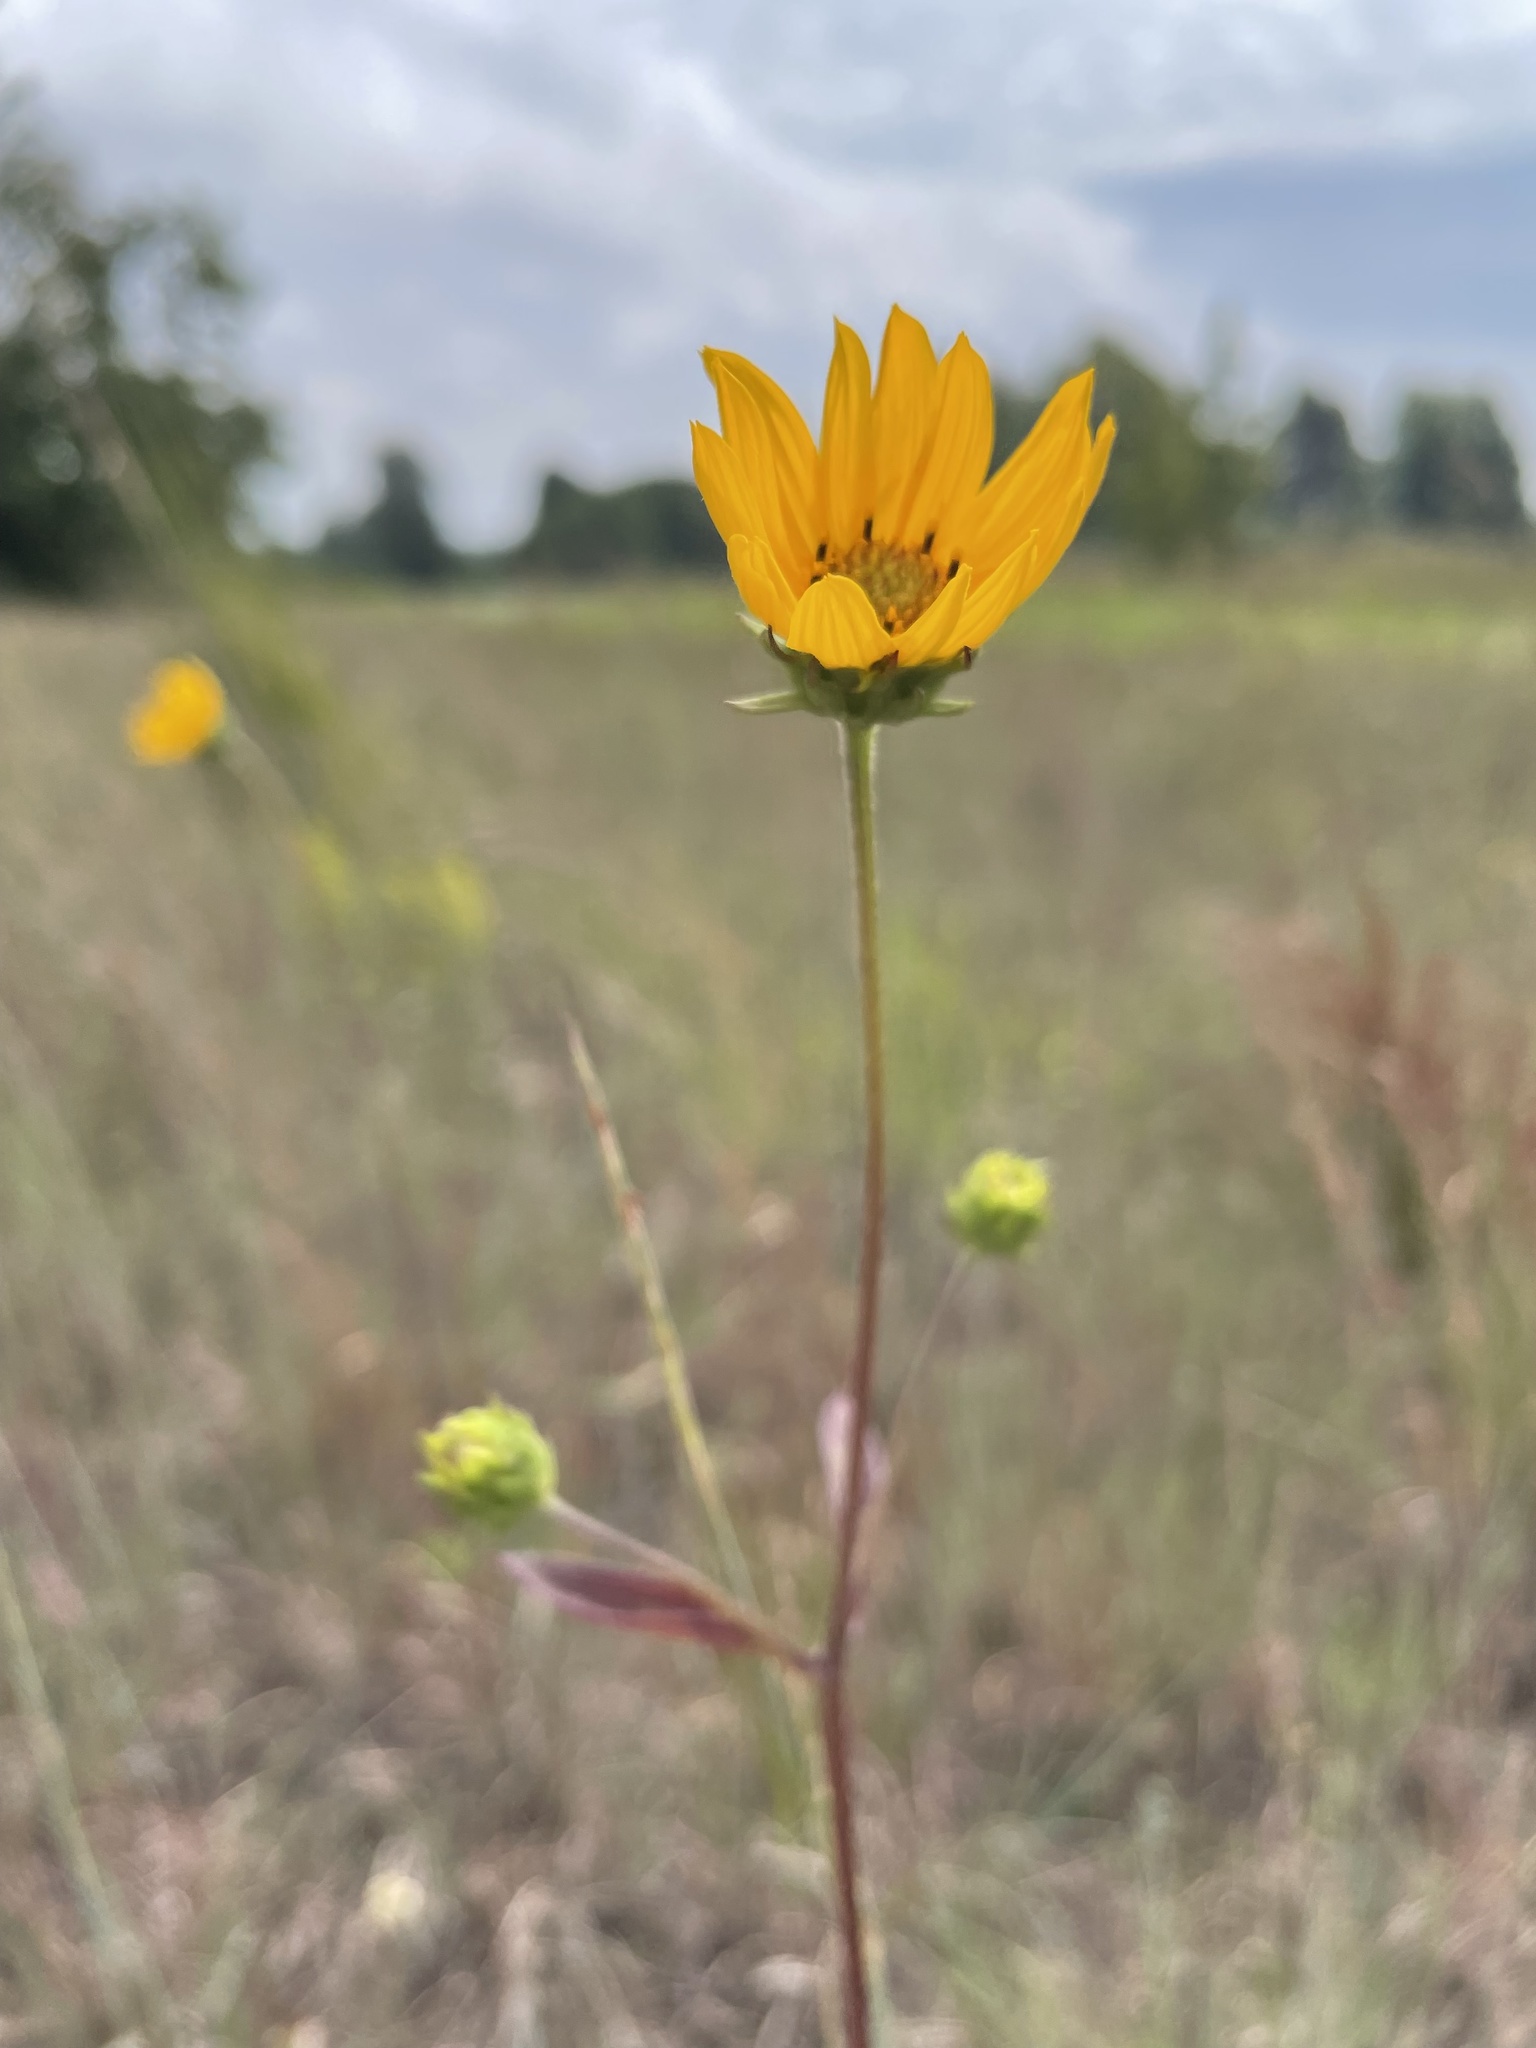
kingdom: Plantae
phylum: Tracheophyta
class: Magnoliopsida
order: Asterales
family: Asteraceae
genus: Helianthus
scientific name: Helianthus occidentalis
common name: Western sunflower
